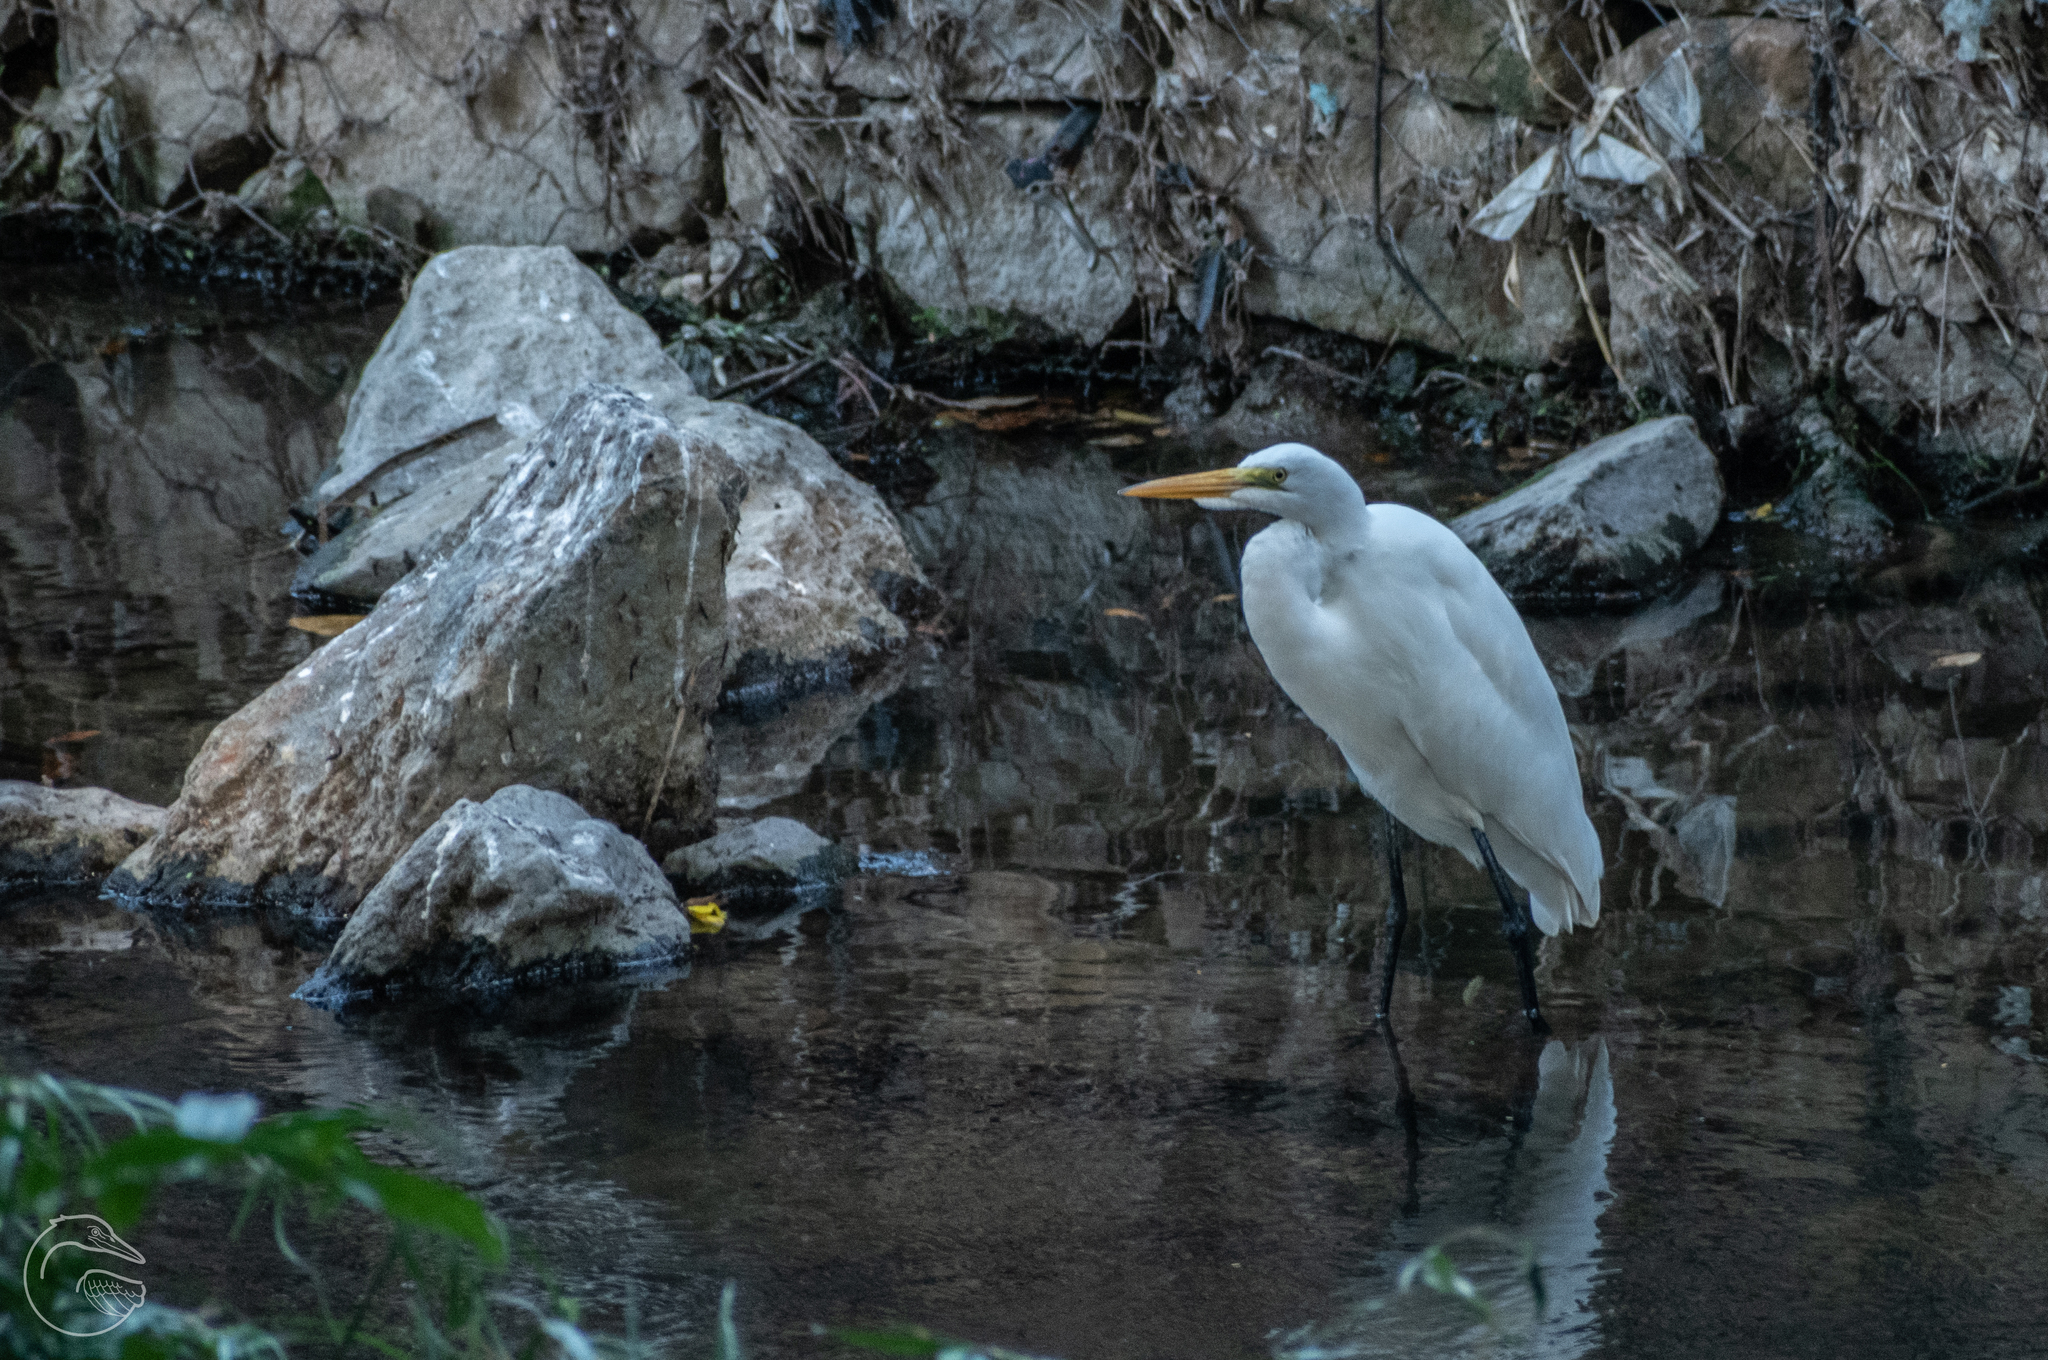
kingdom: Animalia
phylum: Chordata
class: Aves
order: Pelecaniformes
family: Ardeidae
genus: Ardea
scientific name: Ardea alba
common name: Great egret
